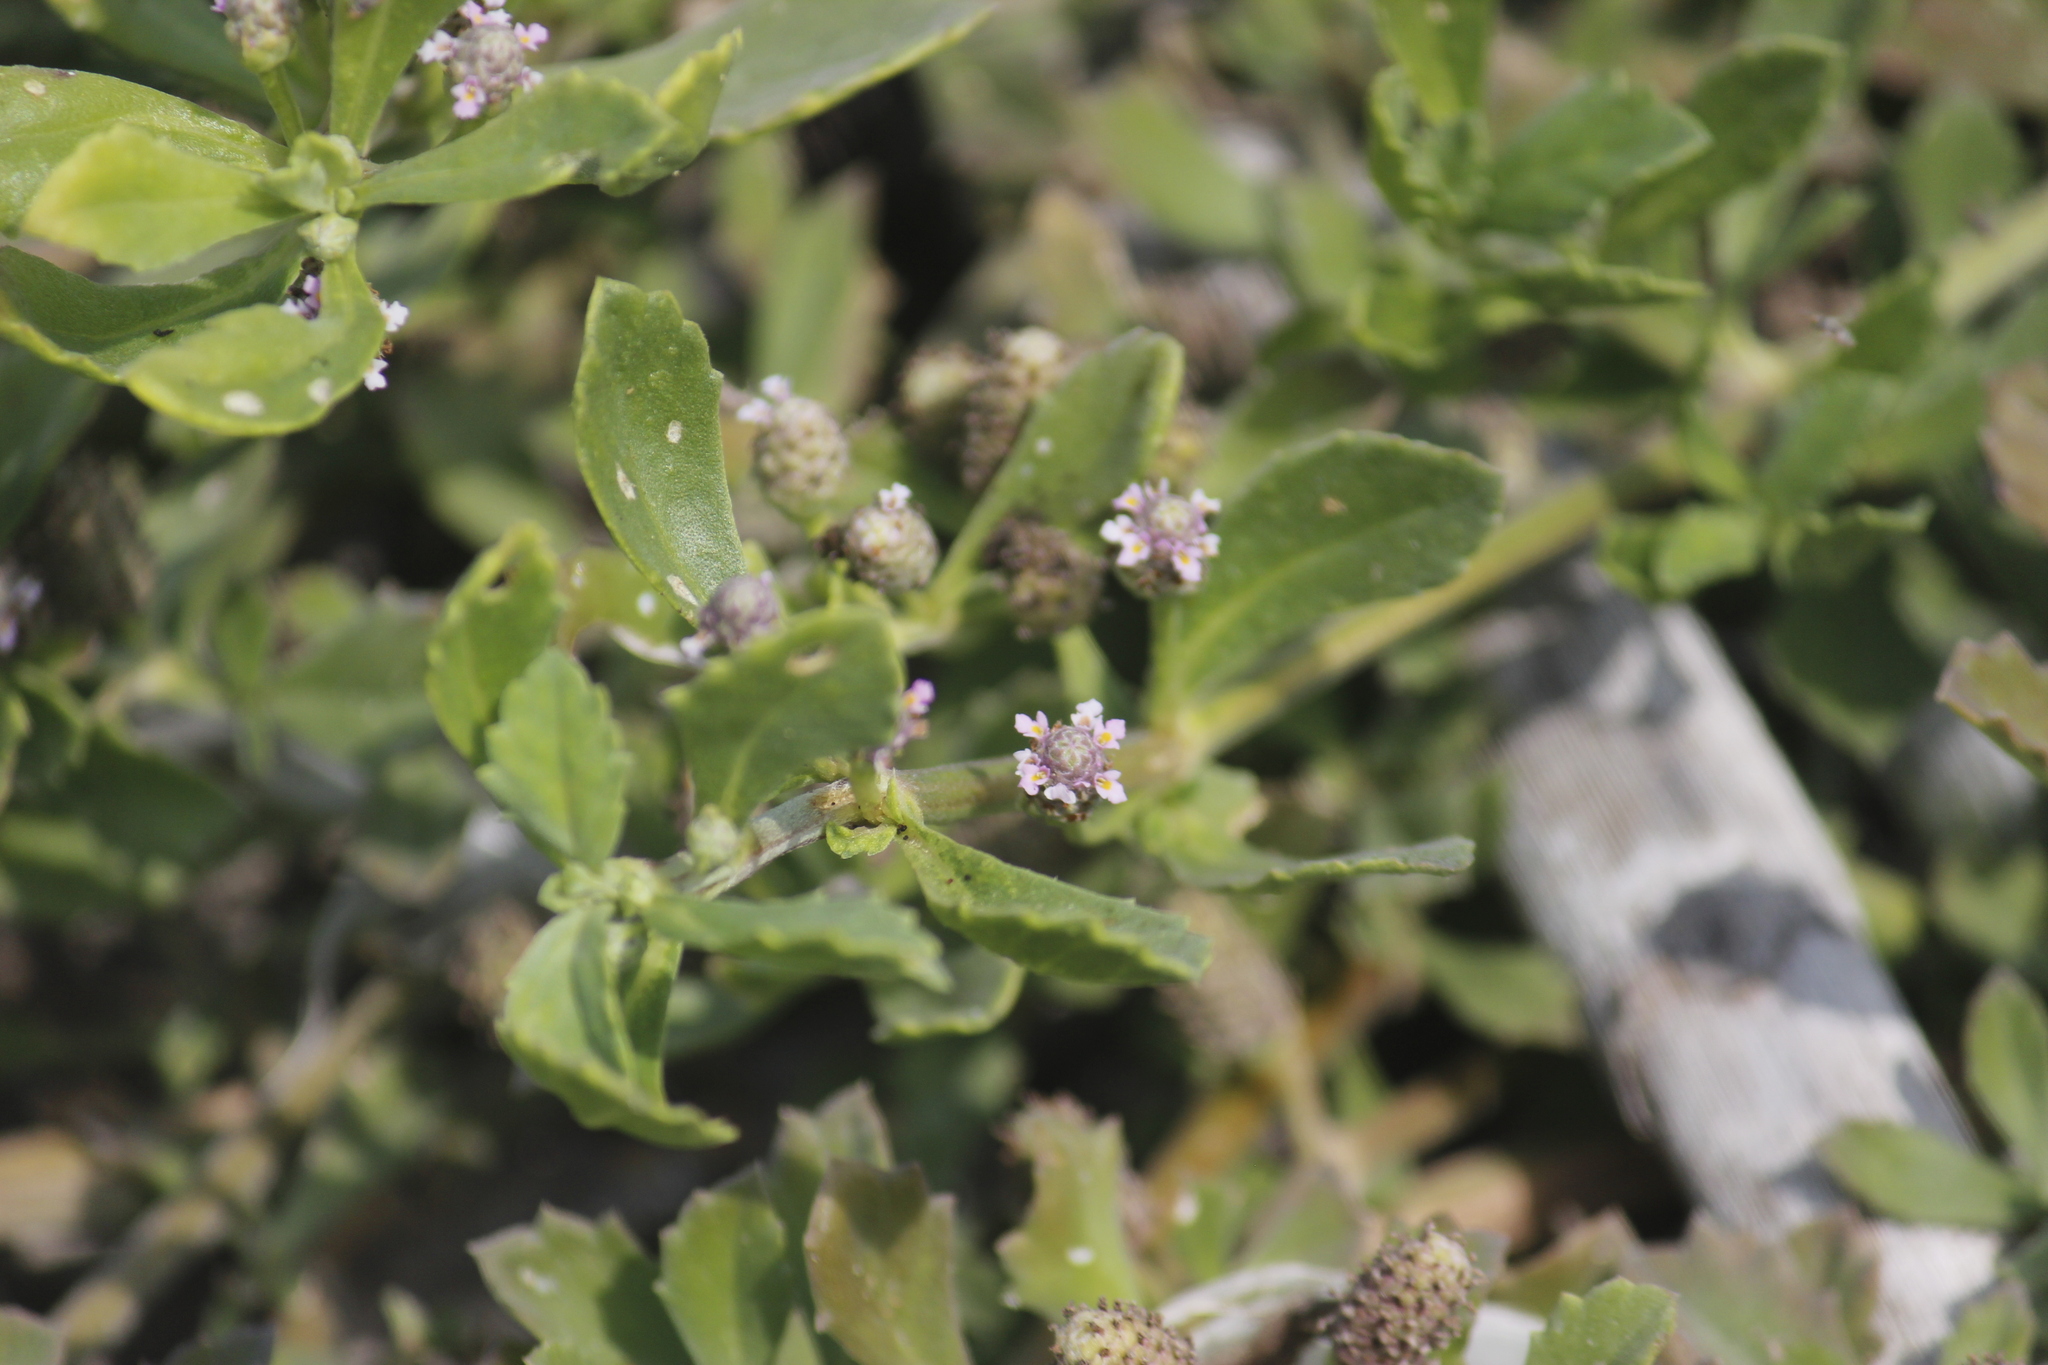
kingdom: Plantae
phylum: Tracheophyta
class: Magnoliopsida
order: Lamiales
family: Verbenaceae
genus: Phyla
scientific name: Phyla nodiflora
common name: Frogfruit
